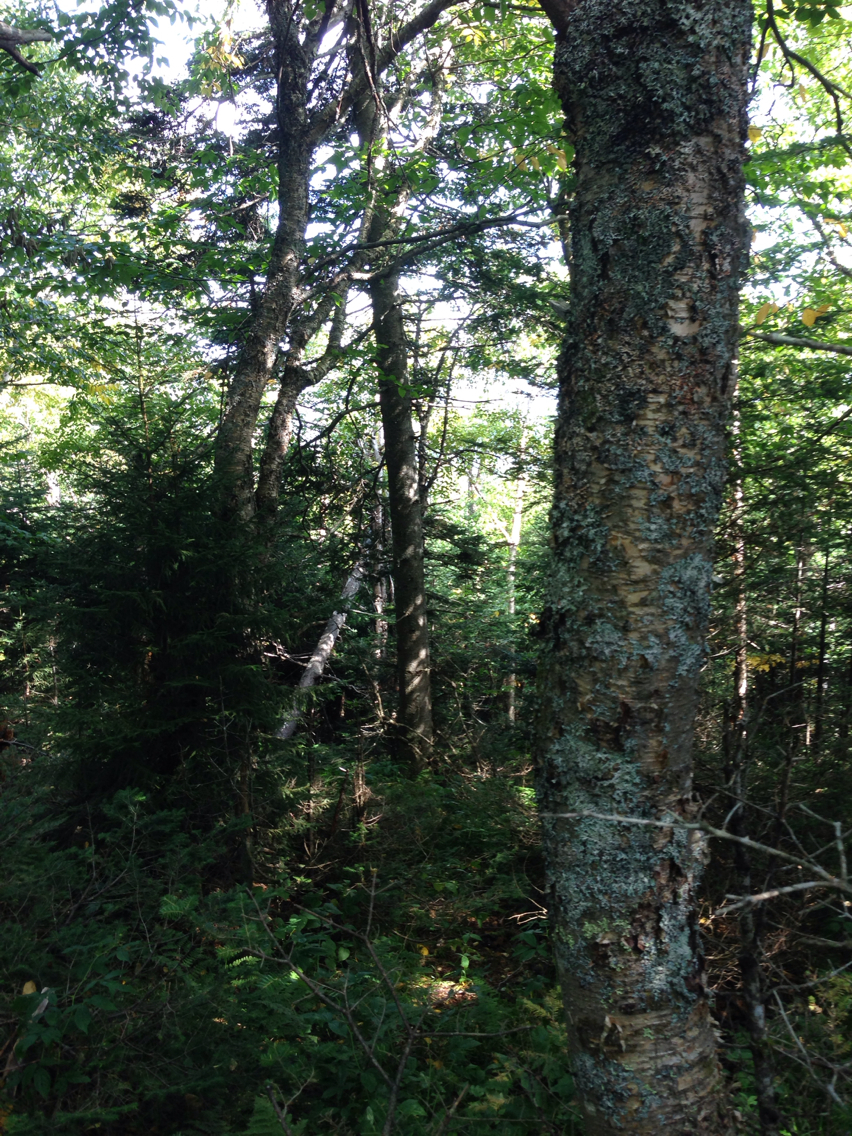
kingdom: Plantae
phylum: Tracheophyta
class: Magnoliopsida
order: Fagales
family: Betulaceae
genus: Betula
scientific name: Betula alleghaniensis
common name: Yellow birch
